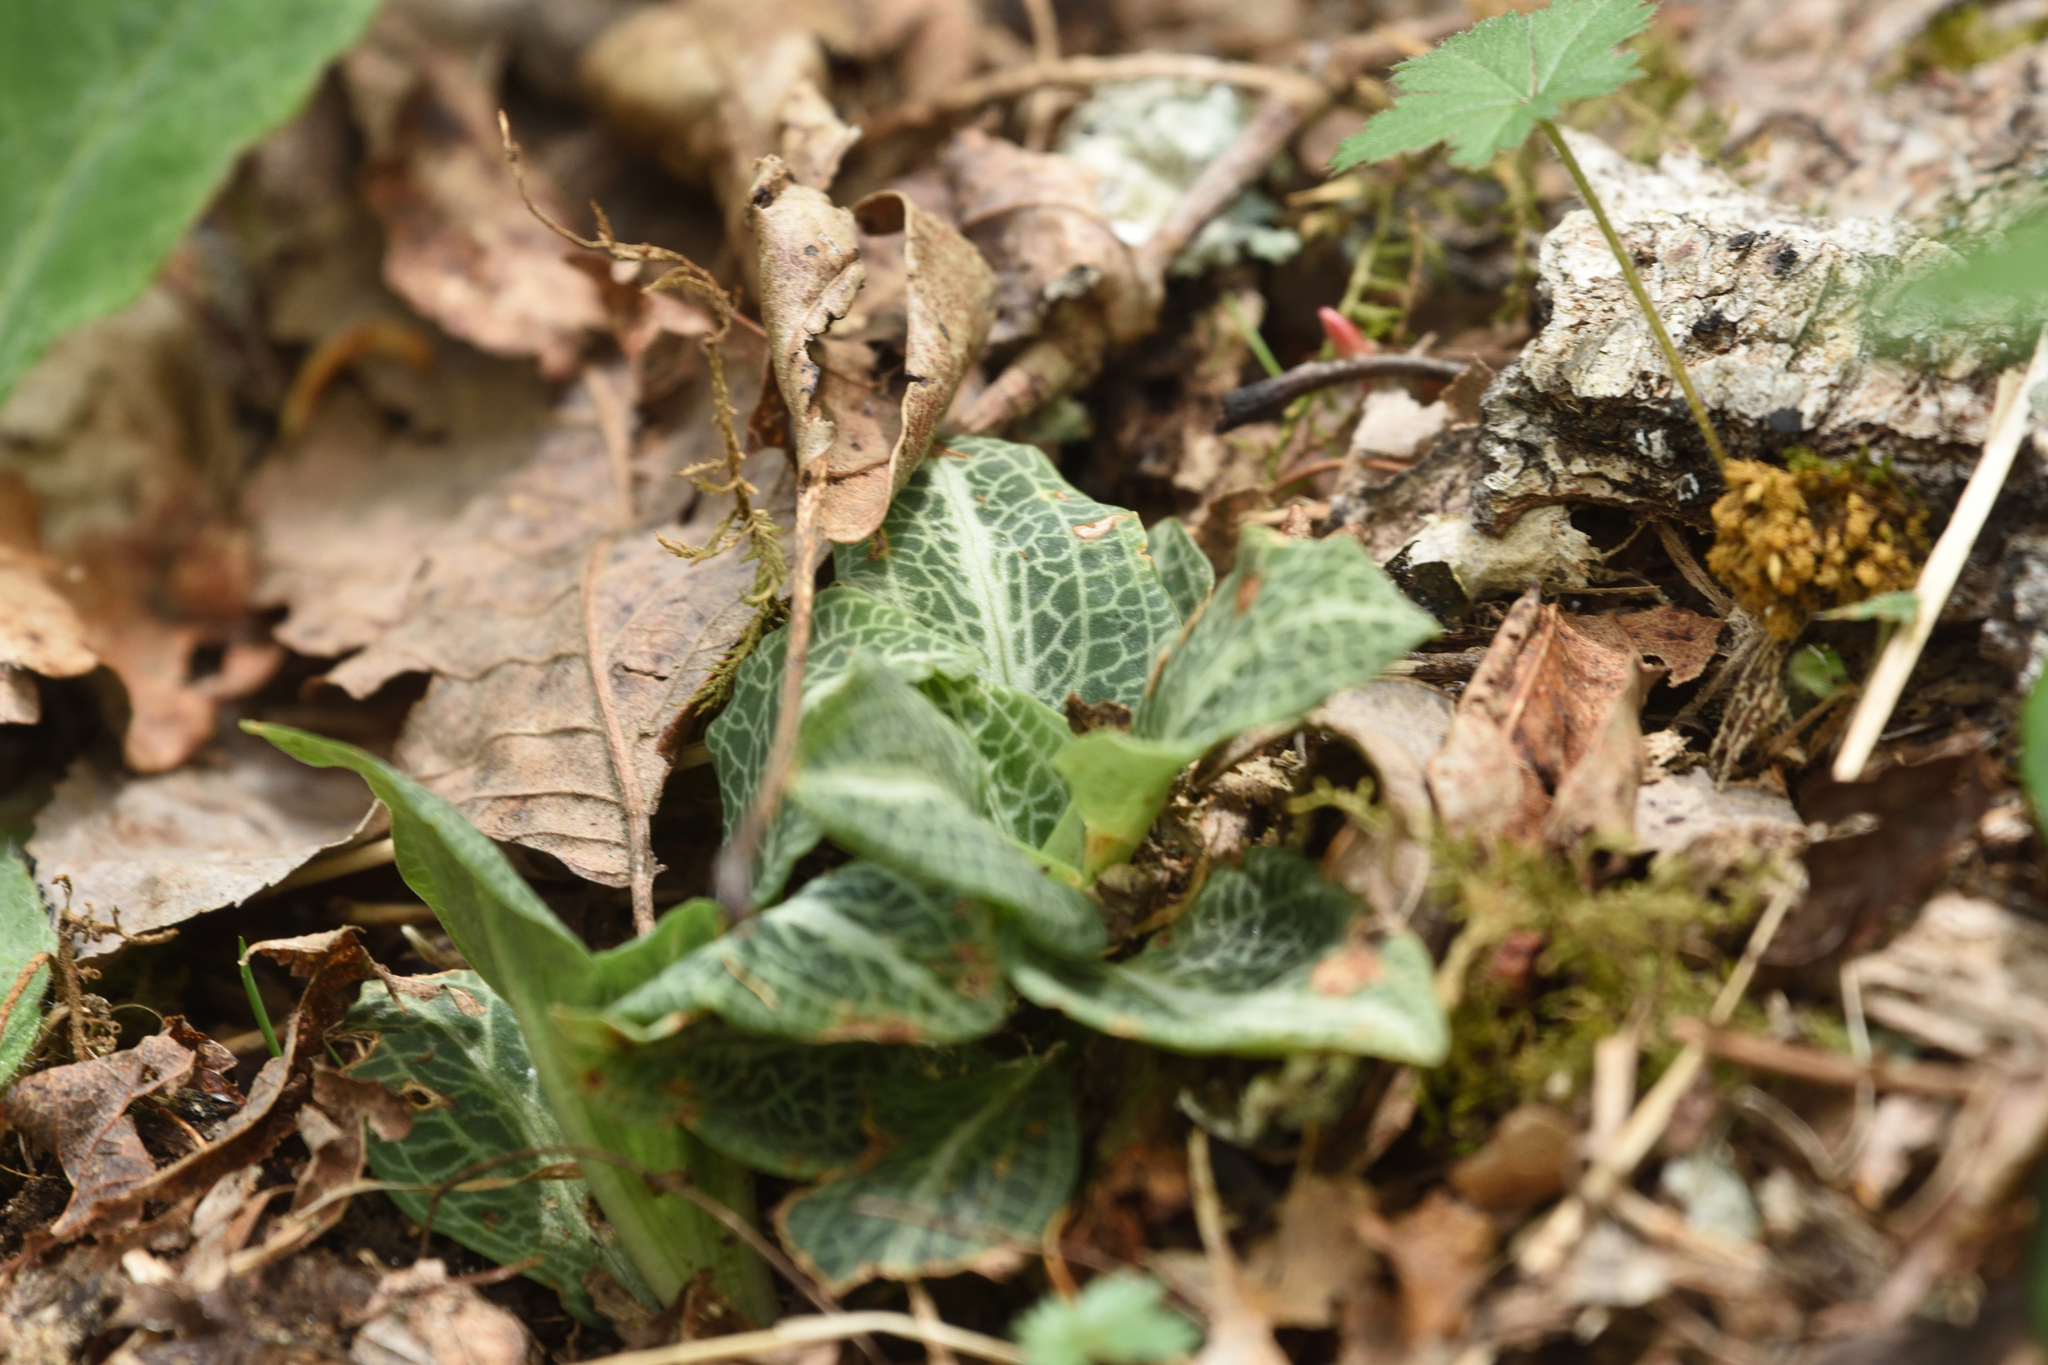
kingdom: Plantae
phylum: Tracheophyta
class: Liliopsida
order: Asparagales
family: Orchidaceae
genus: Goodyera
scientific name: Goodyera pubescens
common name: Downy rattlesnake-plantain
